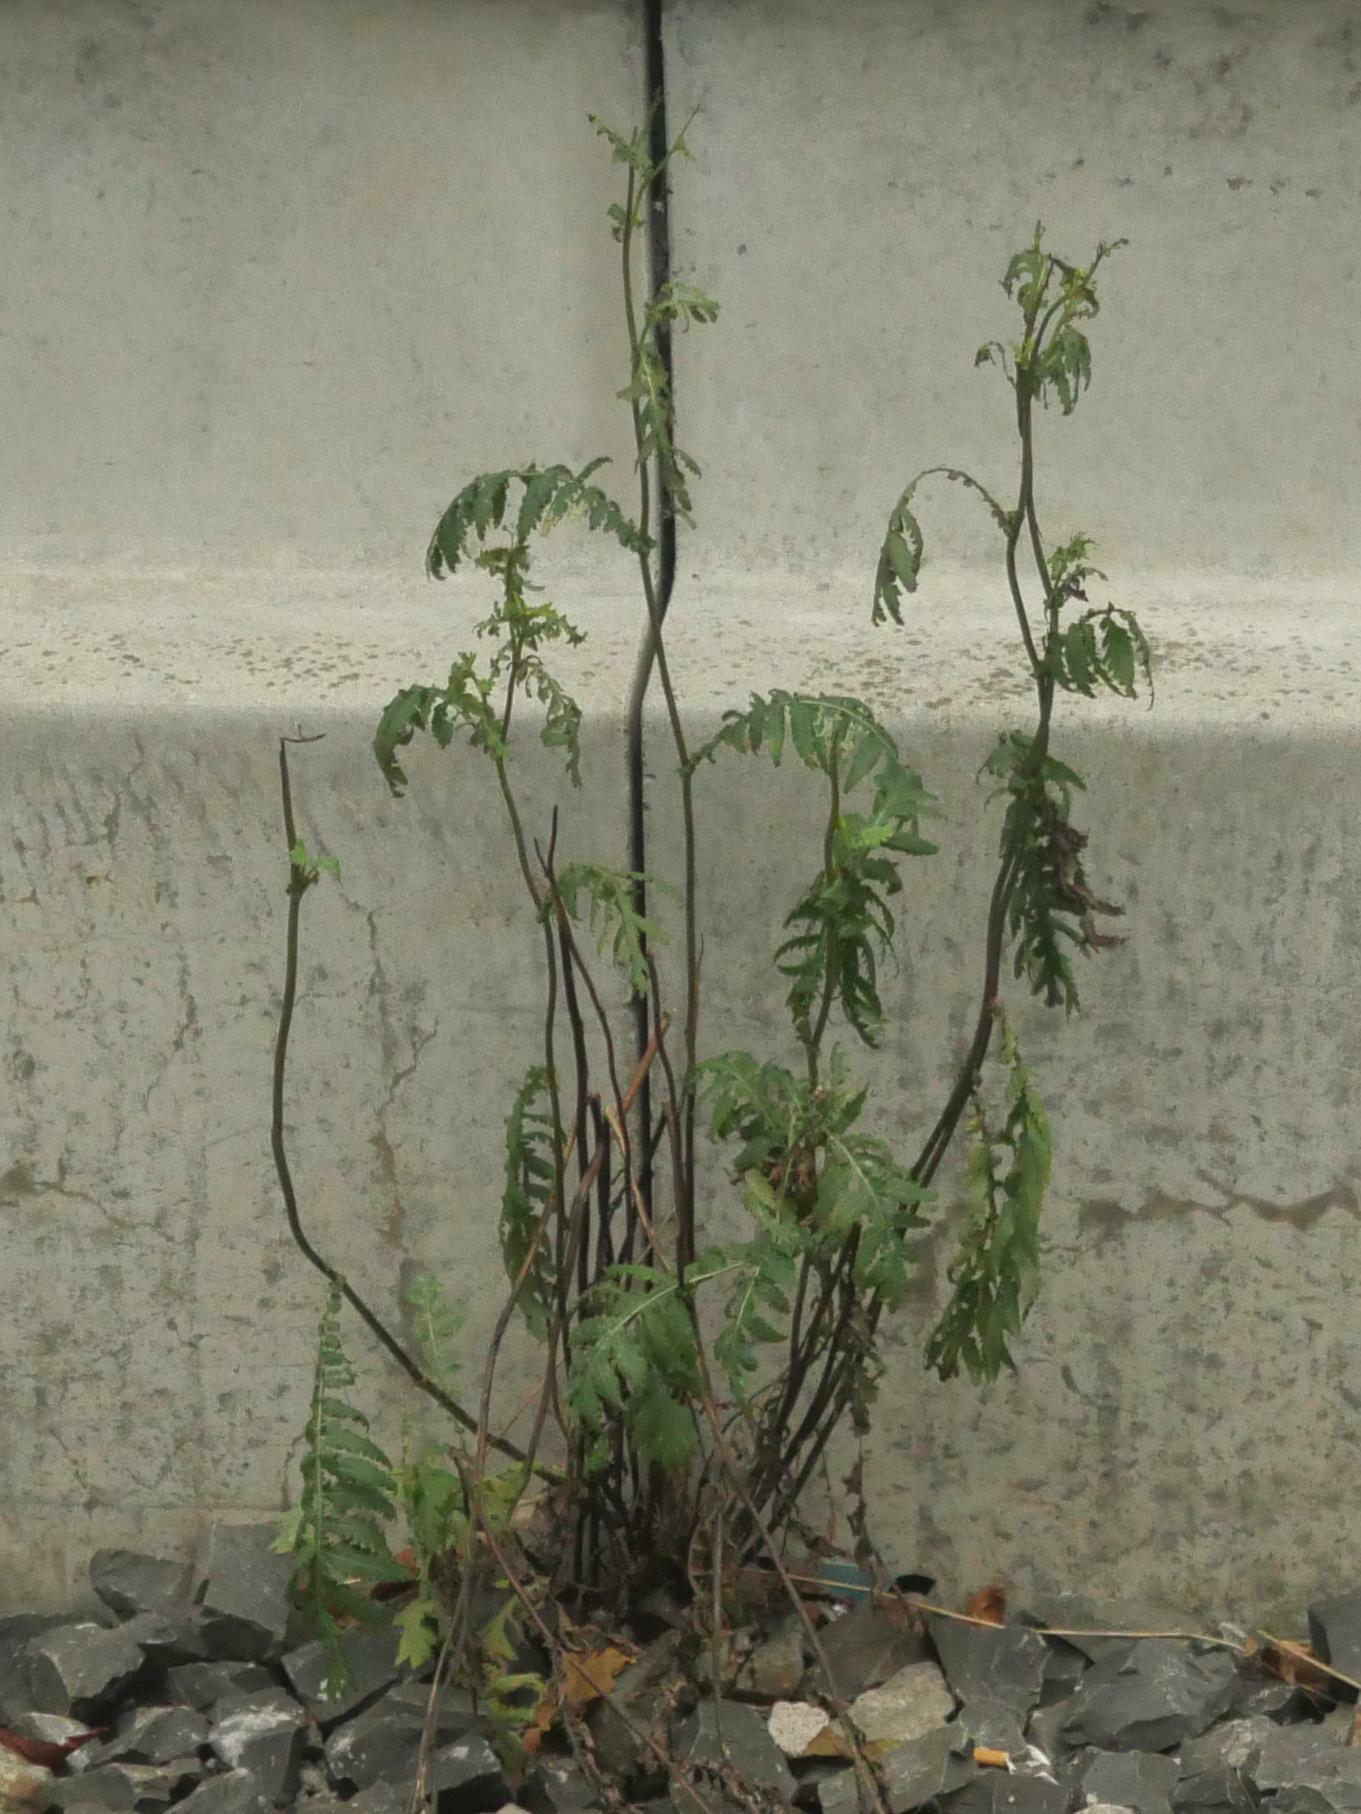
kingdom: Plantae
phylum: Tracheophyta
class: Magnoliopsida
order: Asterales
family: Asteraceae
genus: Tanacetum
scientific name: Tanacetum vulgare
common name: Common tansy
